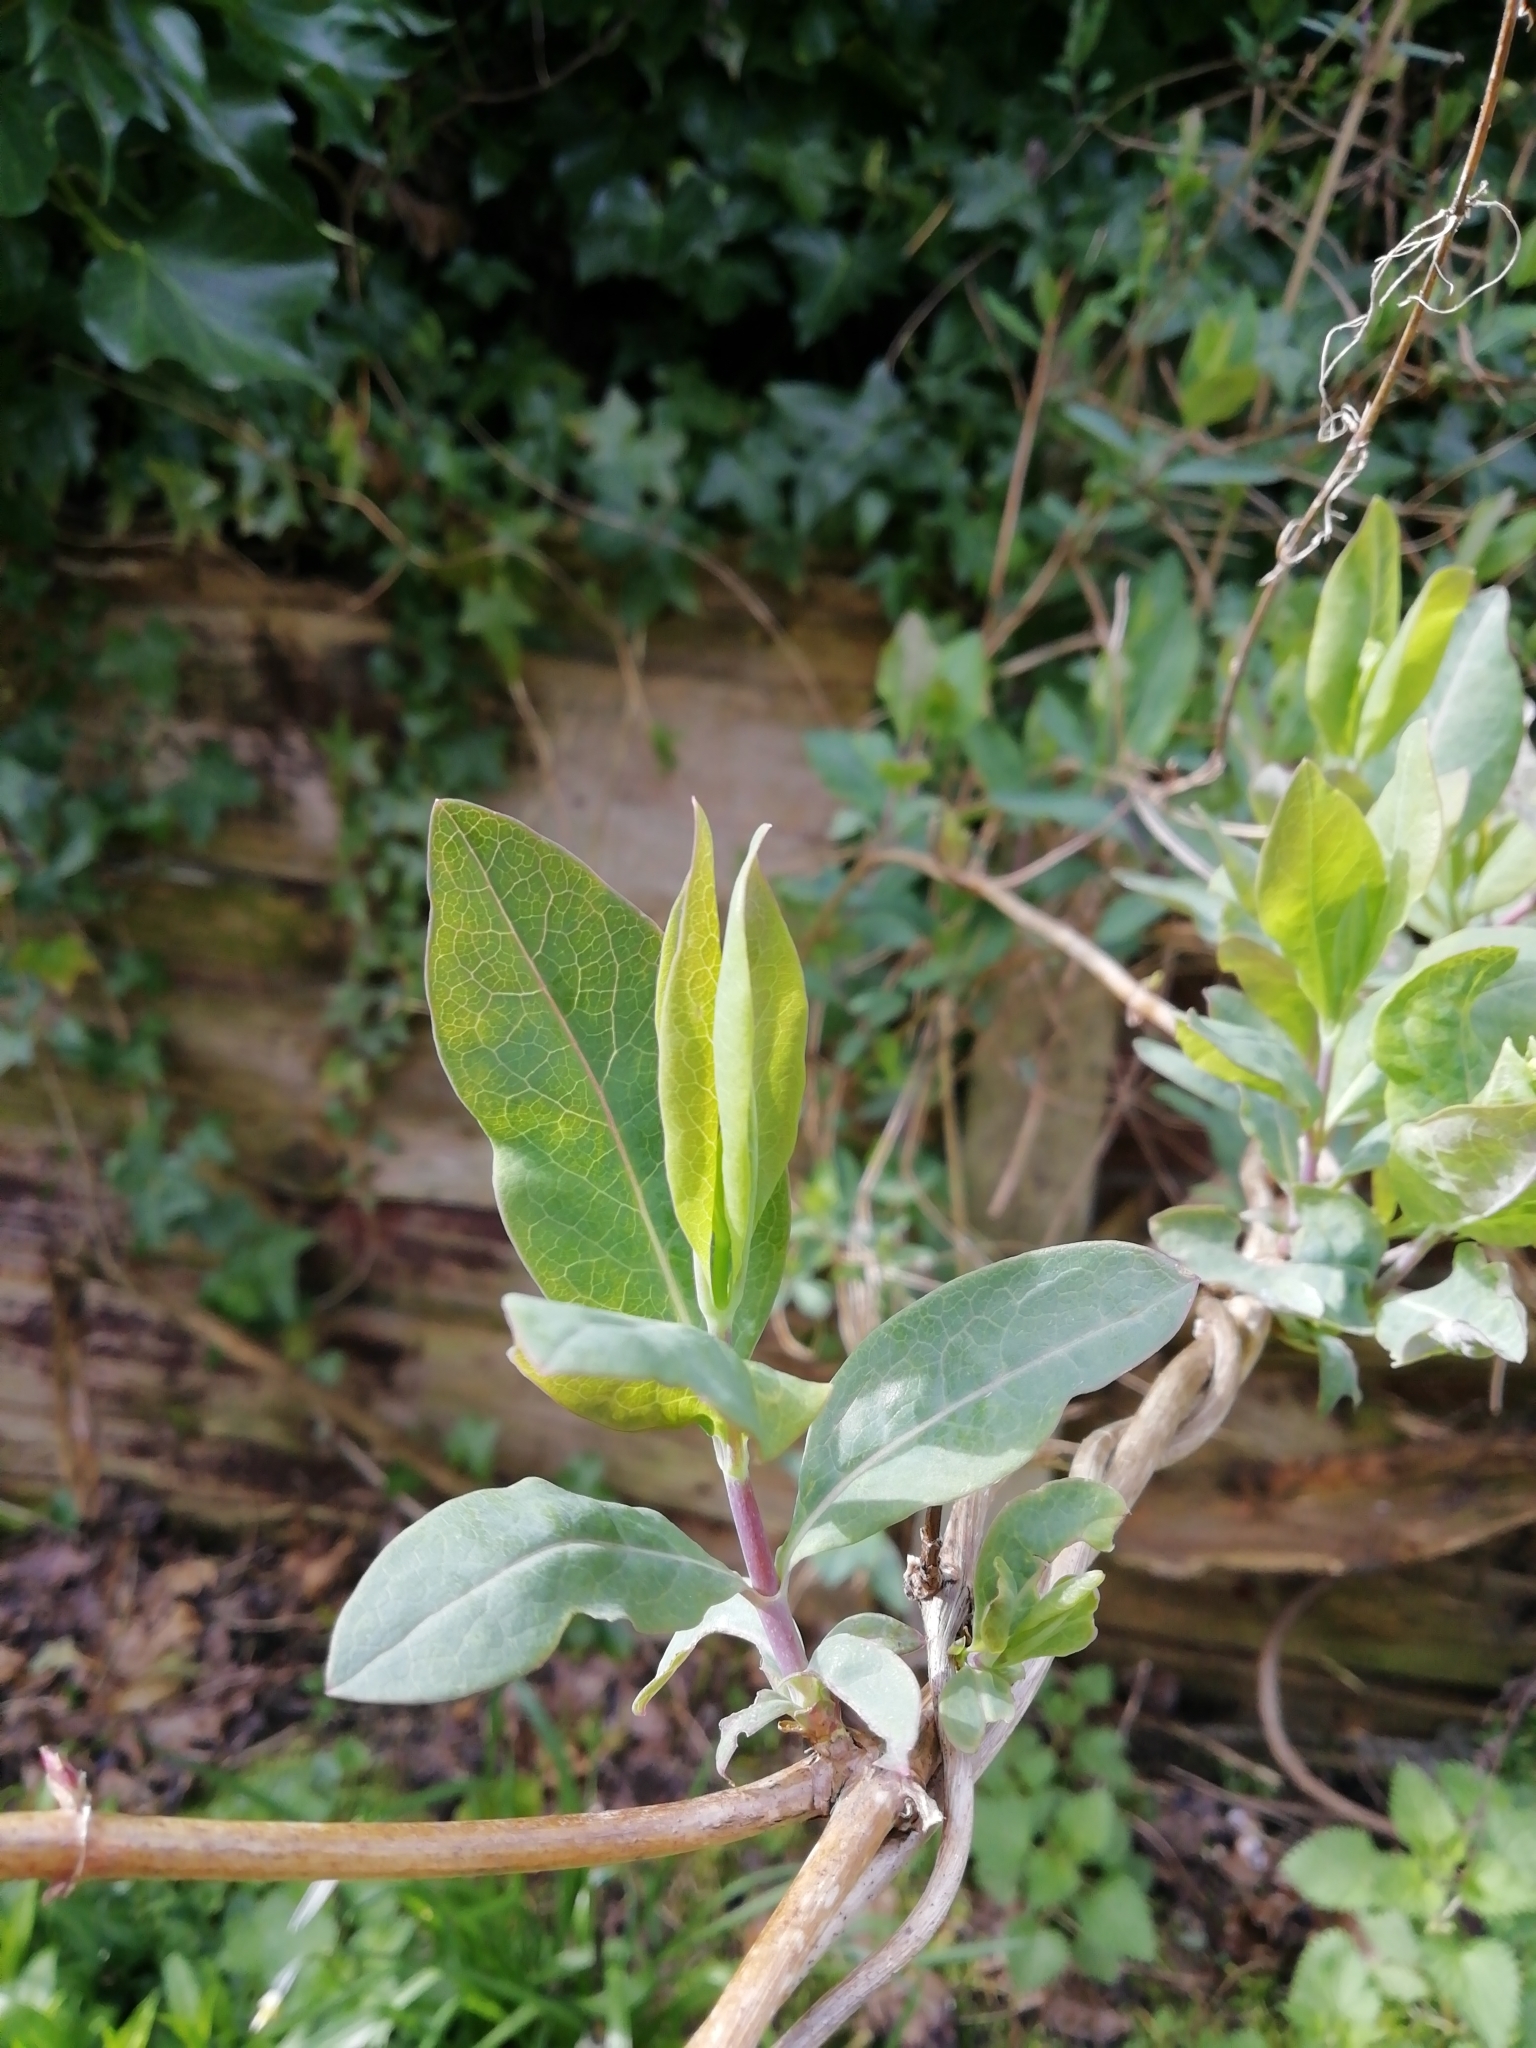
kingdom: Plantae
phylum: Tracheophyta
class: Magnoliopsida
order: Dipsacales
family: Caprifoliaceae
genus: Lonicera
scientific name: Lonicera periclymenum
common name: European honeysuckle
